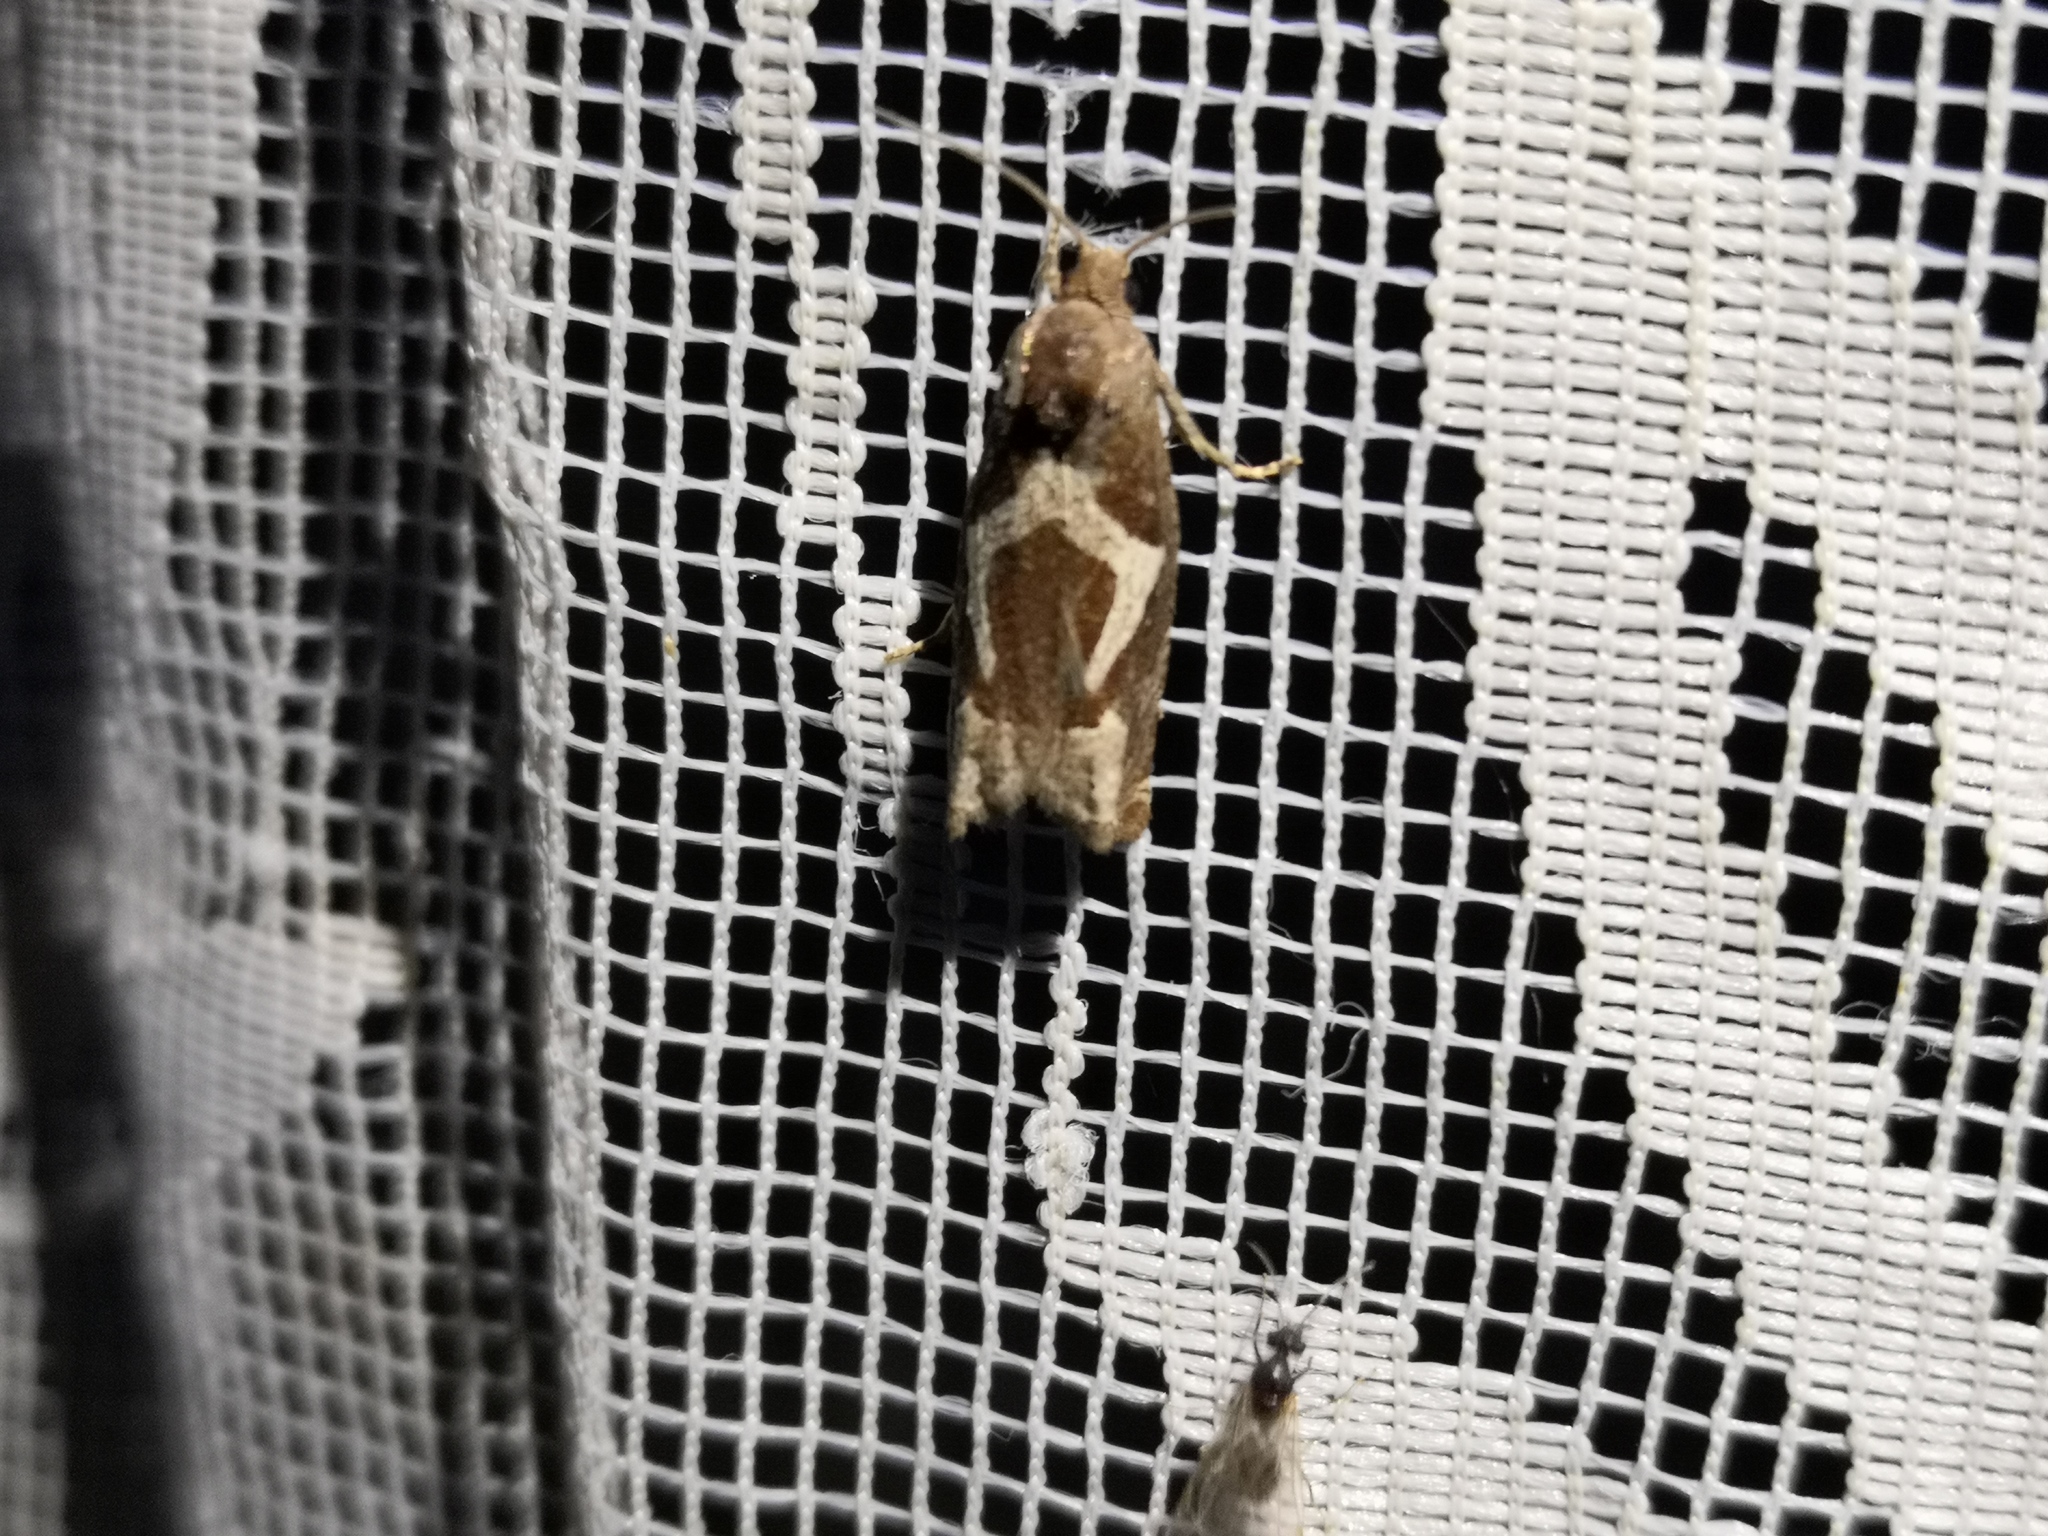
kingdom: Animalia
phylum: Arthropoda
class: Insecta
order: Lepidoptera
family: Tortricidae
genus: Epiblema
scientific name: Epiblema foenella
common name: White-foot bell
